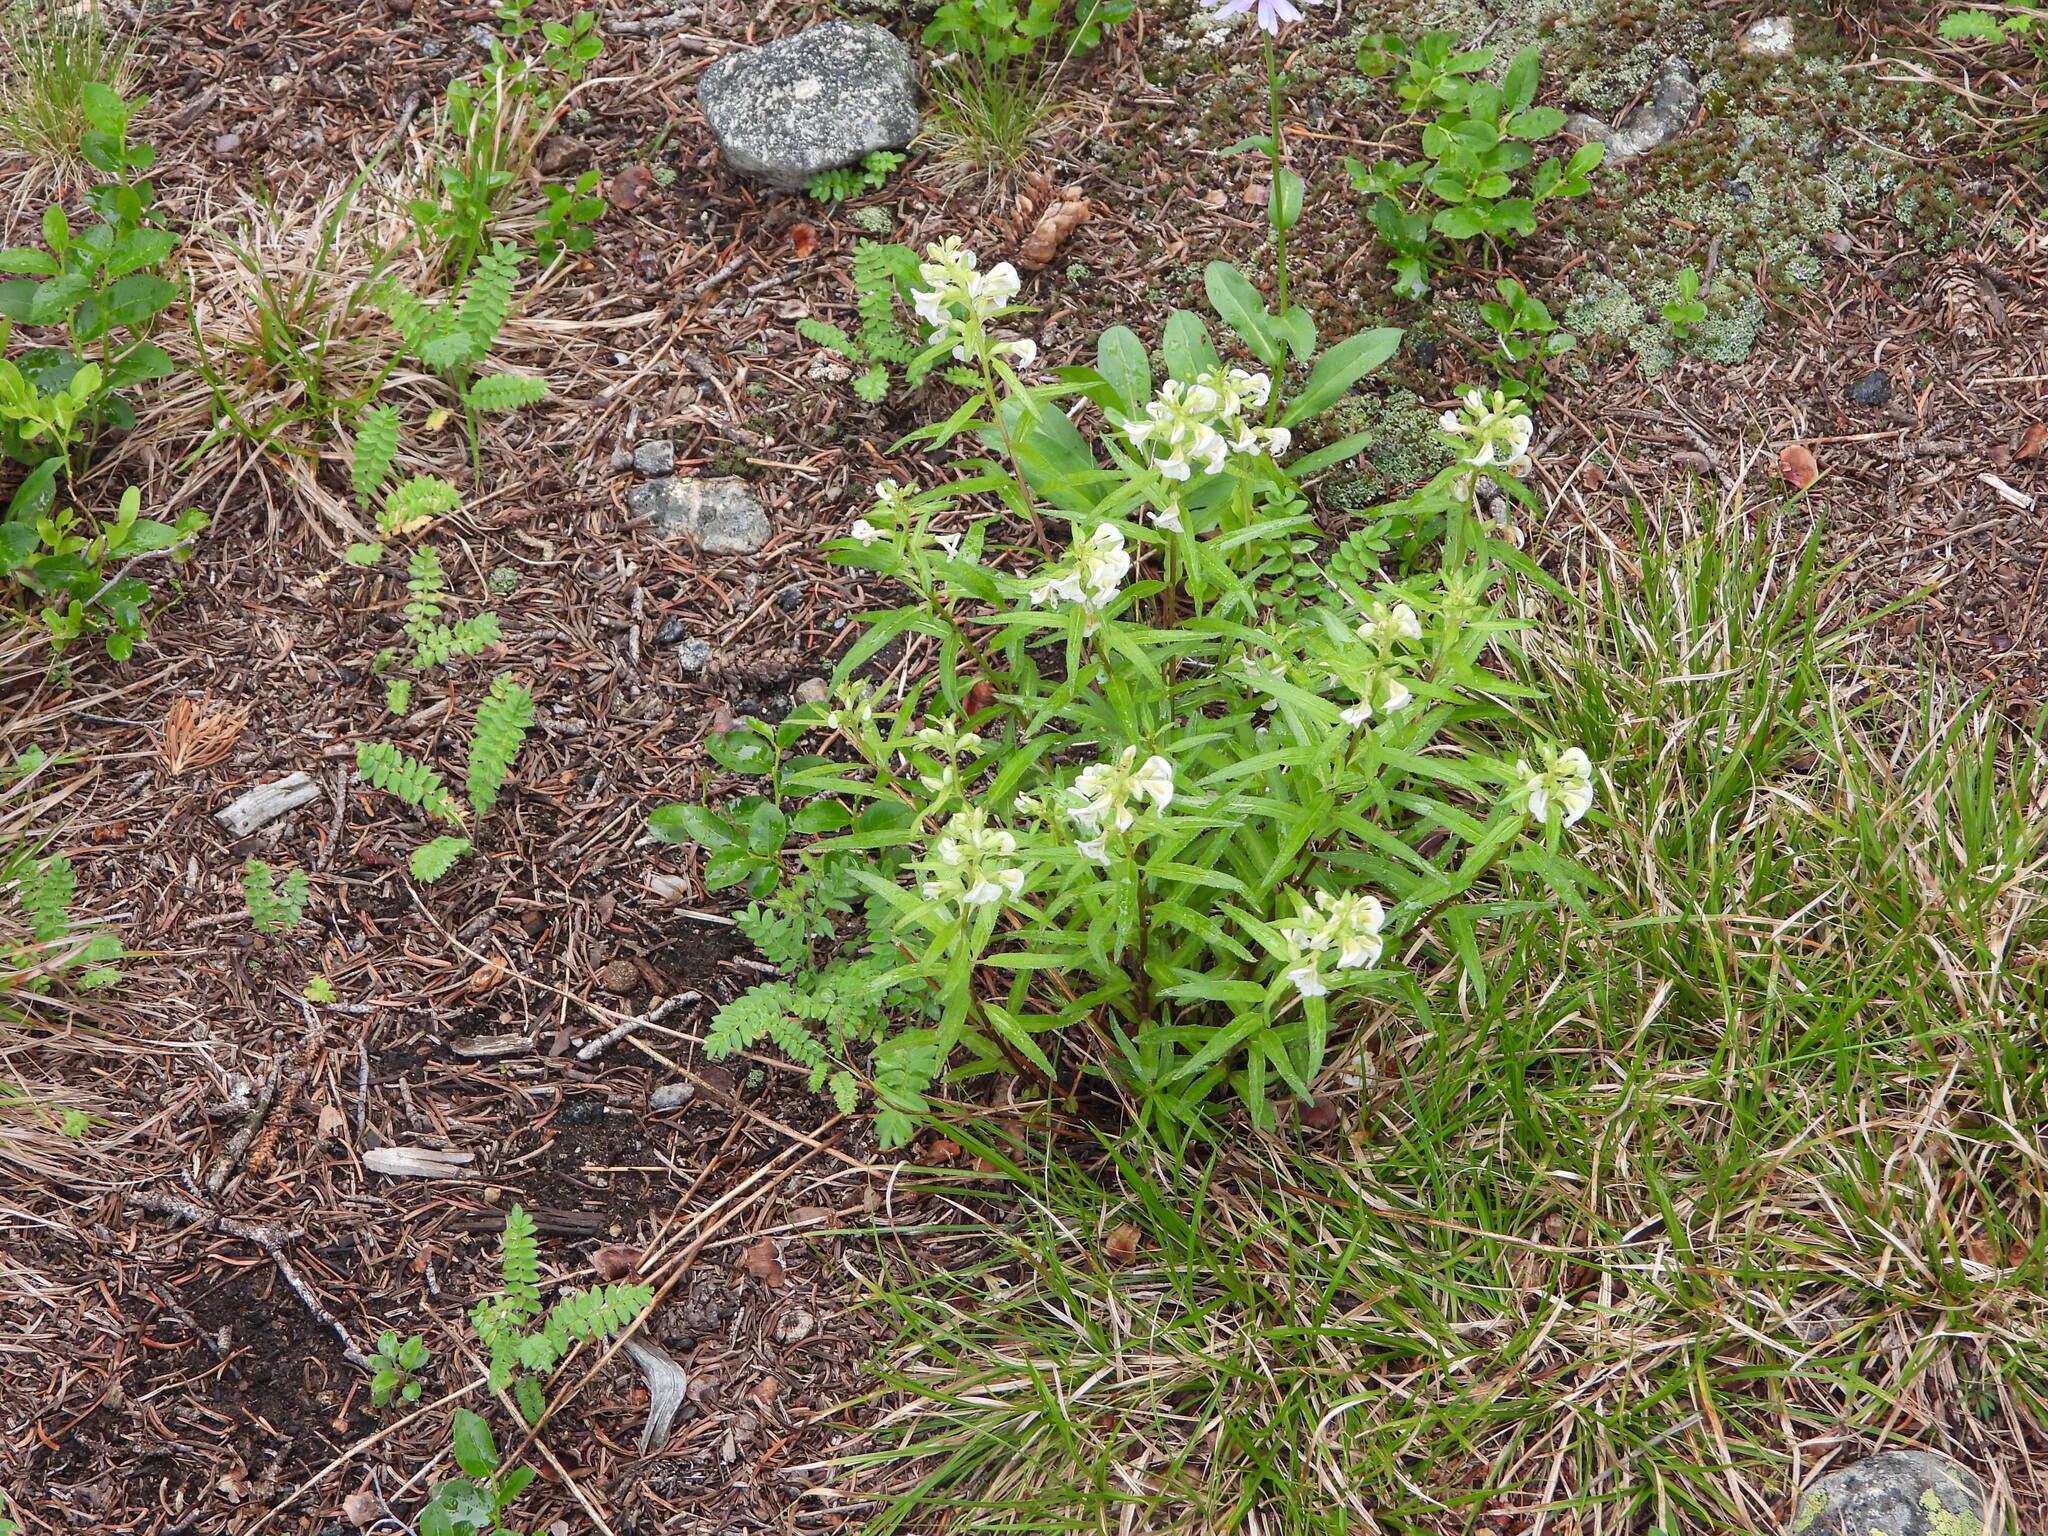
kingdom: Plantae
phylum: Tracheophyta
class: Magnoliopsida
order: Lamiales
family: Orobanchaceae
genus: Pedicularis
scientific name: Pedicularis racemosa
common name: Leafy lousewort
